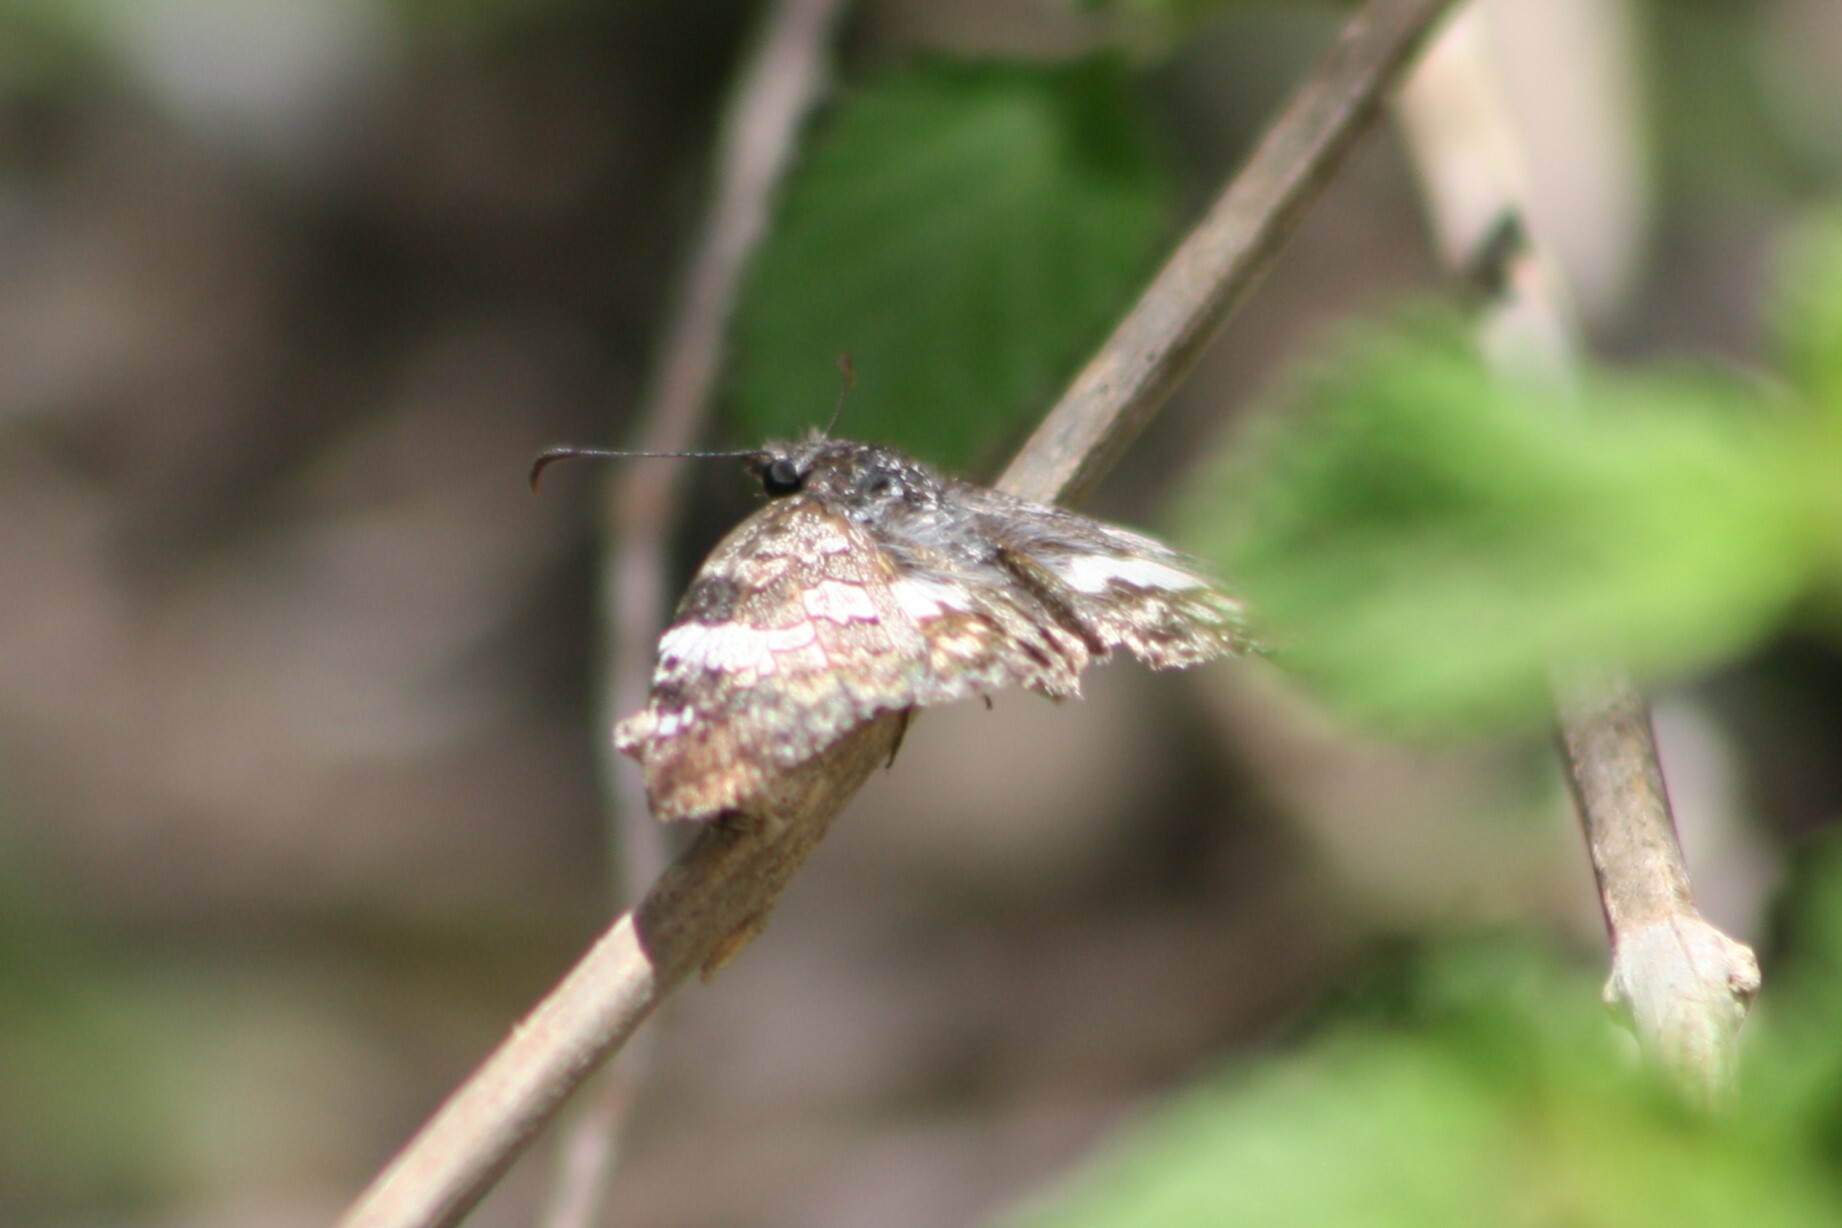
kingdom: Animalia
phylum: Arthropoda
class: Insecta
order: Lepidoptera
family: Hesperiidae
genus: Chiothion
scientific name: Chiothion georgina
